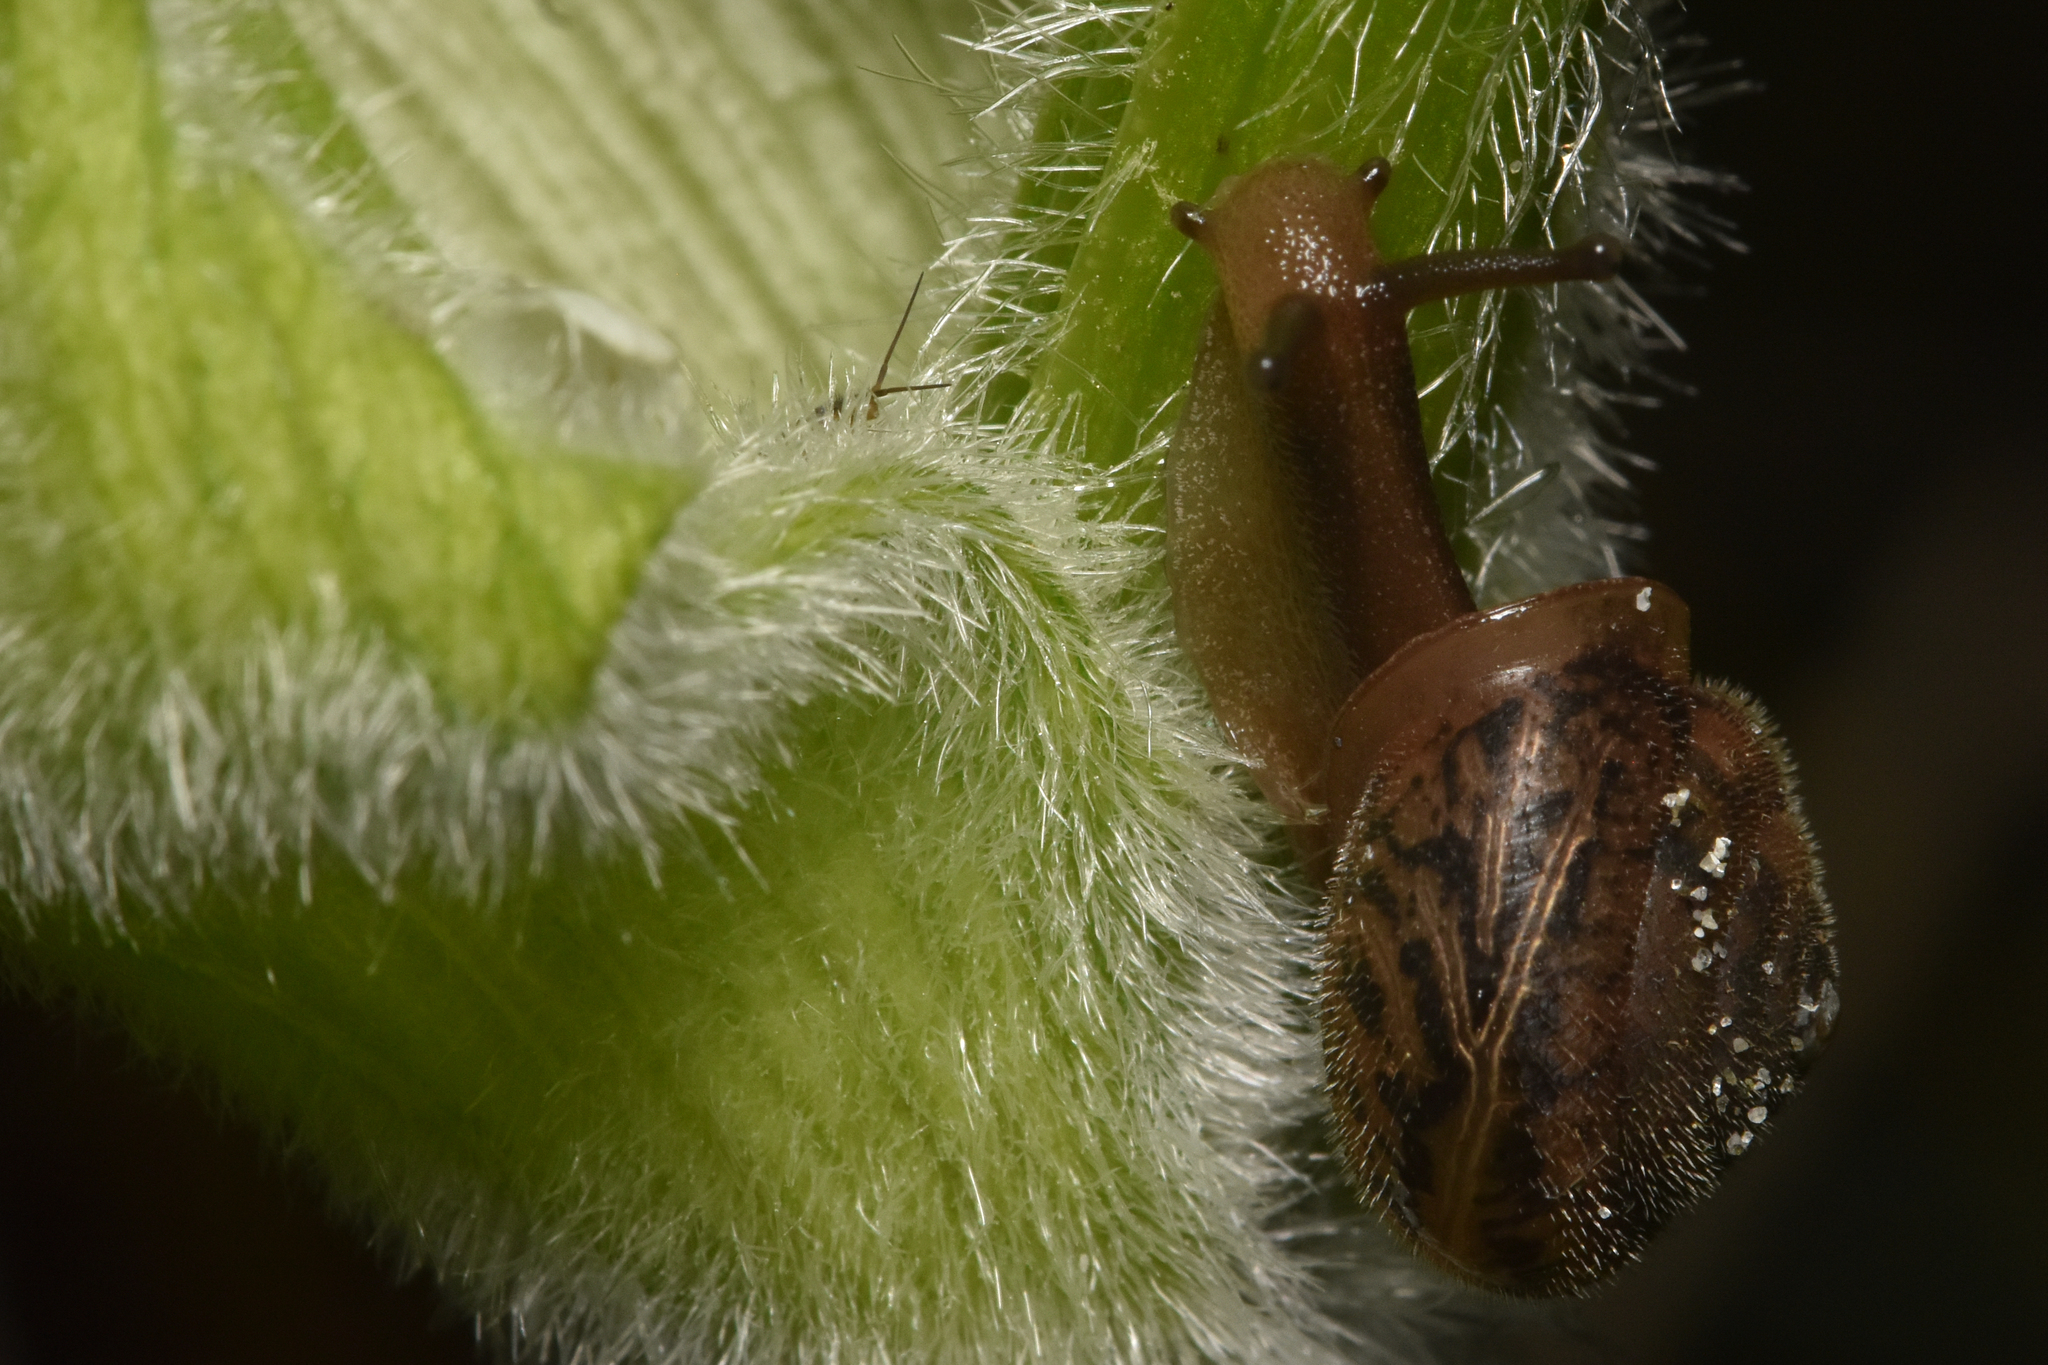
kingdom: Animalia
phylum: Mollusca
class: Gastropoda
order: Stylommatophora
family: Polygyridae
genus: Vespericola
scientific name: Vespericola columbianus
